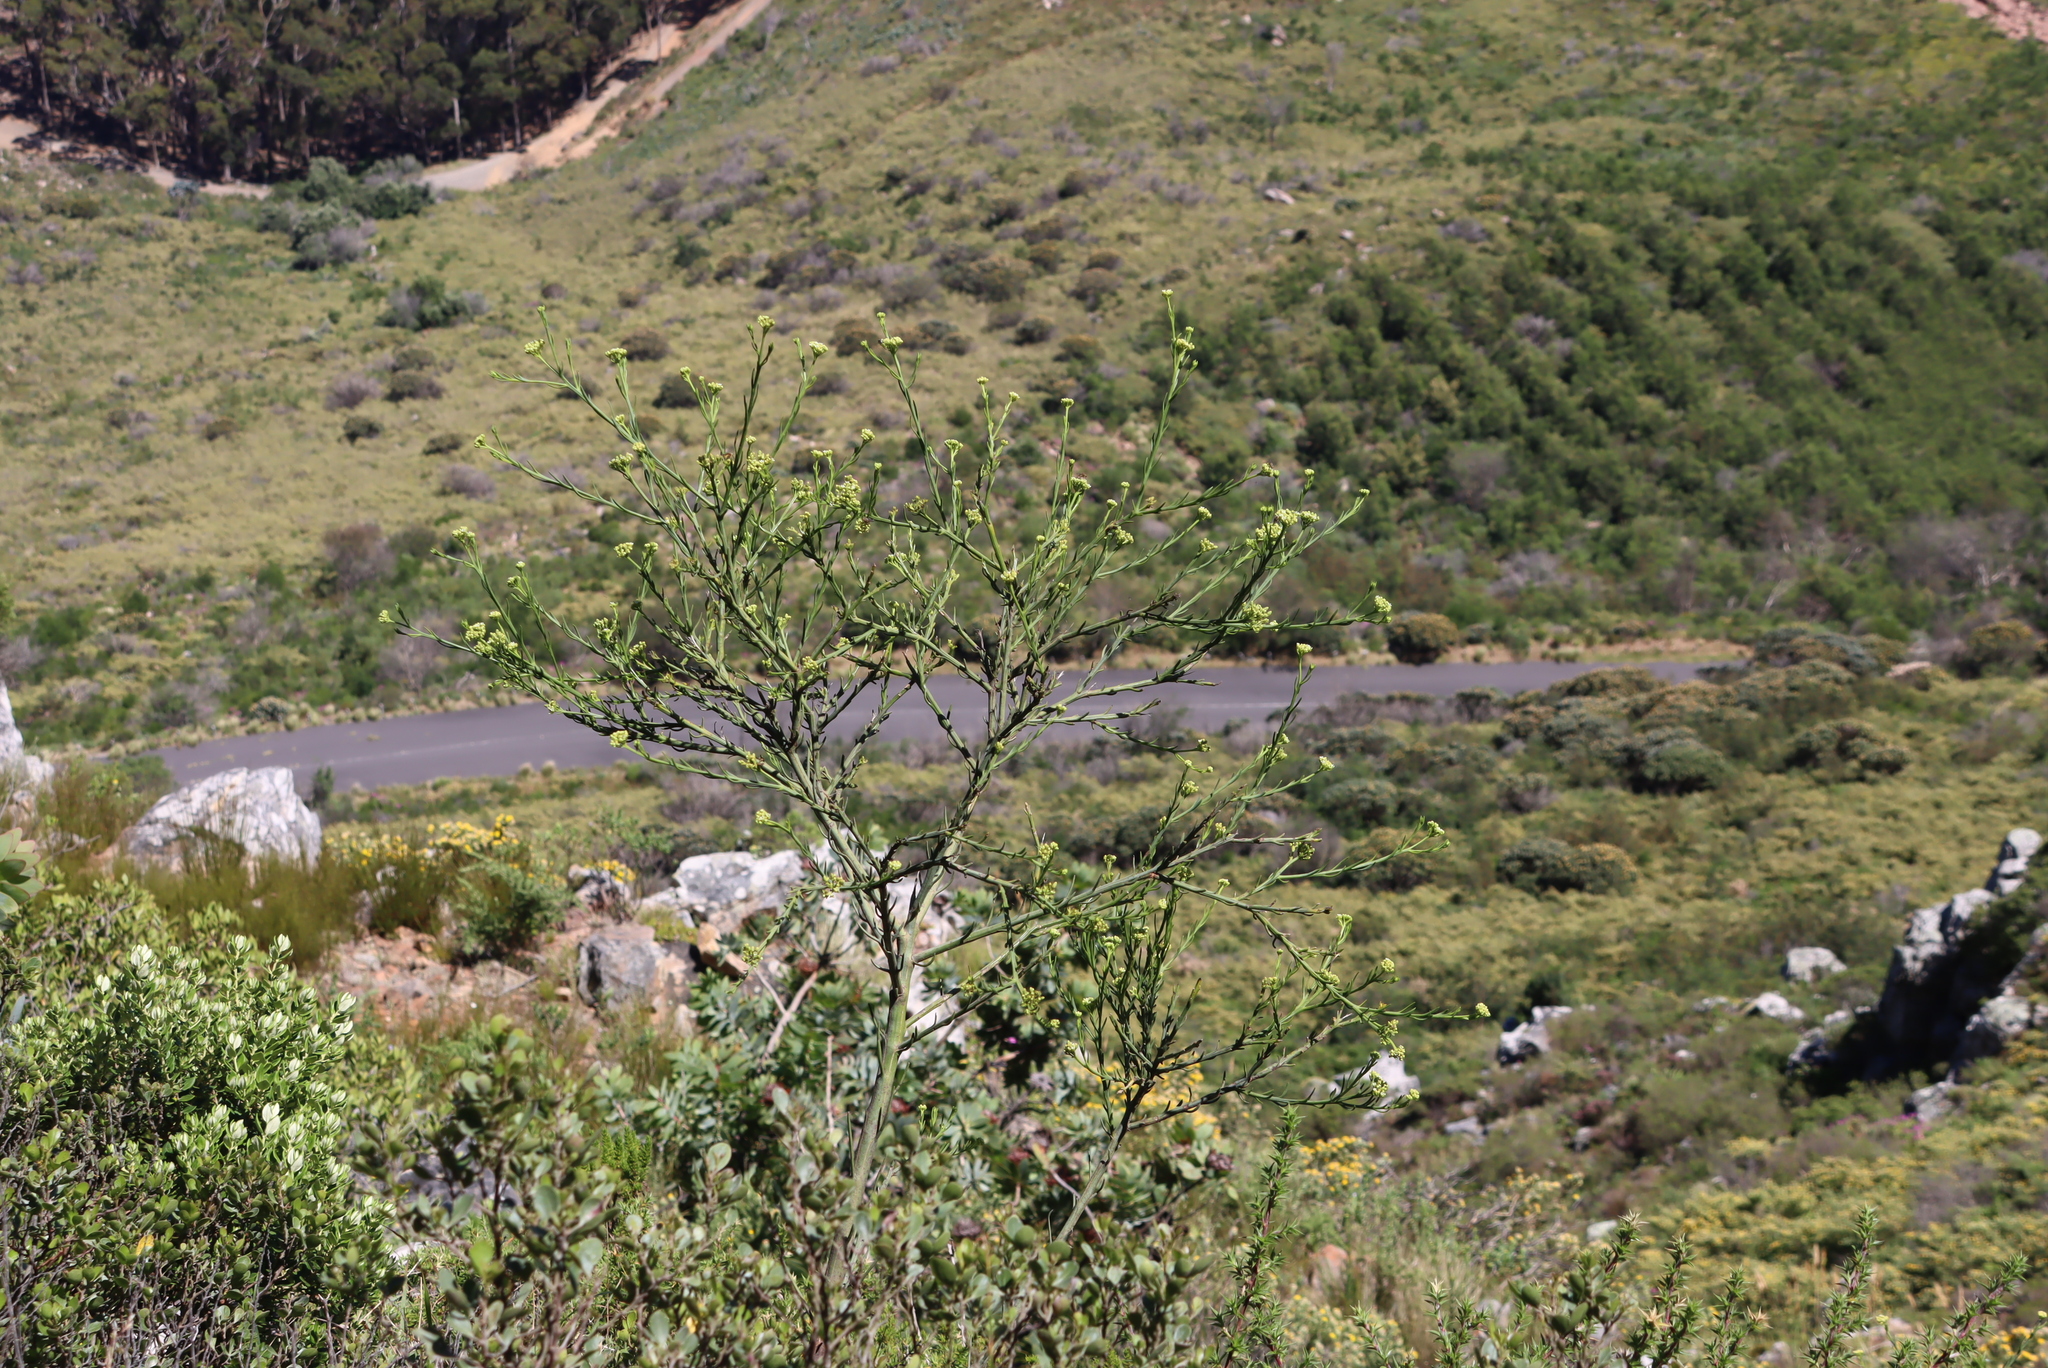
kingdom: Plantae
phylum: Tracheophyta
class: Magnoliopsida
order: Santalales
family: Thesiaceae
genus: Thesium
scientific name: Thesium strictum
